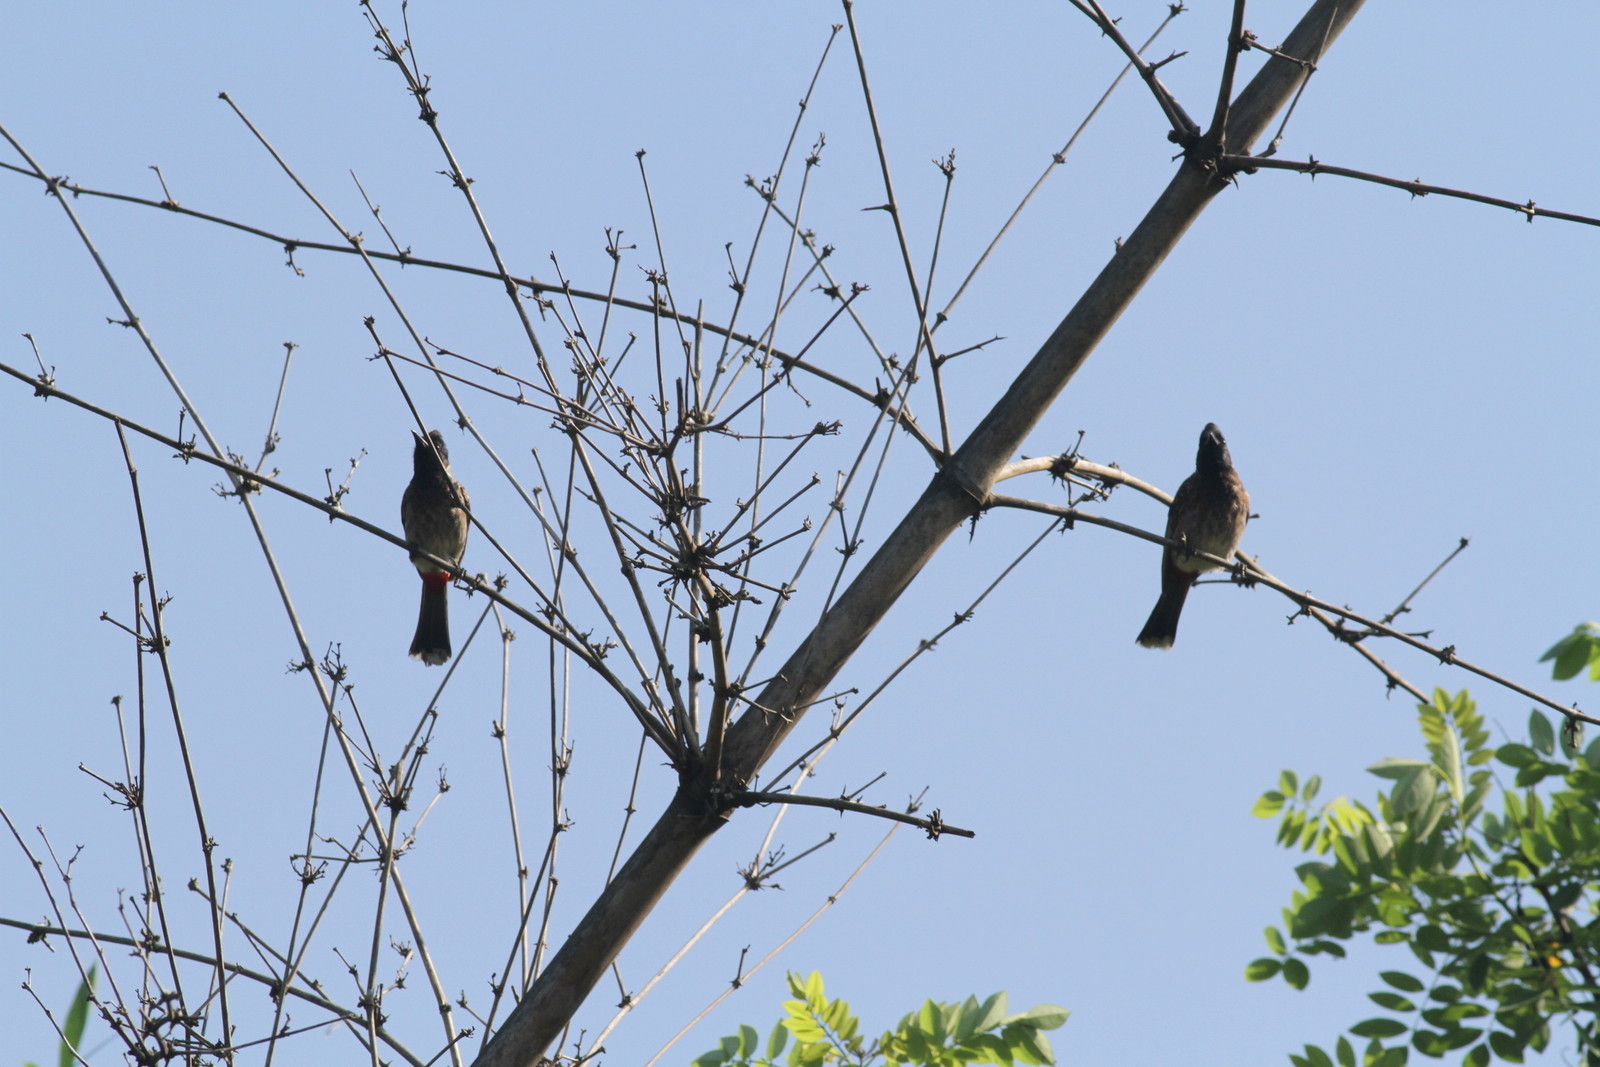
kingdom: Animalia
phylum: Chordata
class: Aves
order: Passeriformes
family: Pycnonotidae
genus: Pycnonotus
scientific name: Pycnonotus cafer
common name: Red-vented bulbul
